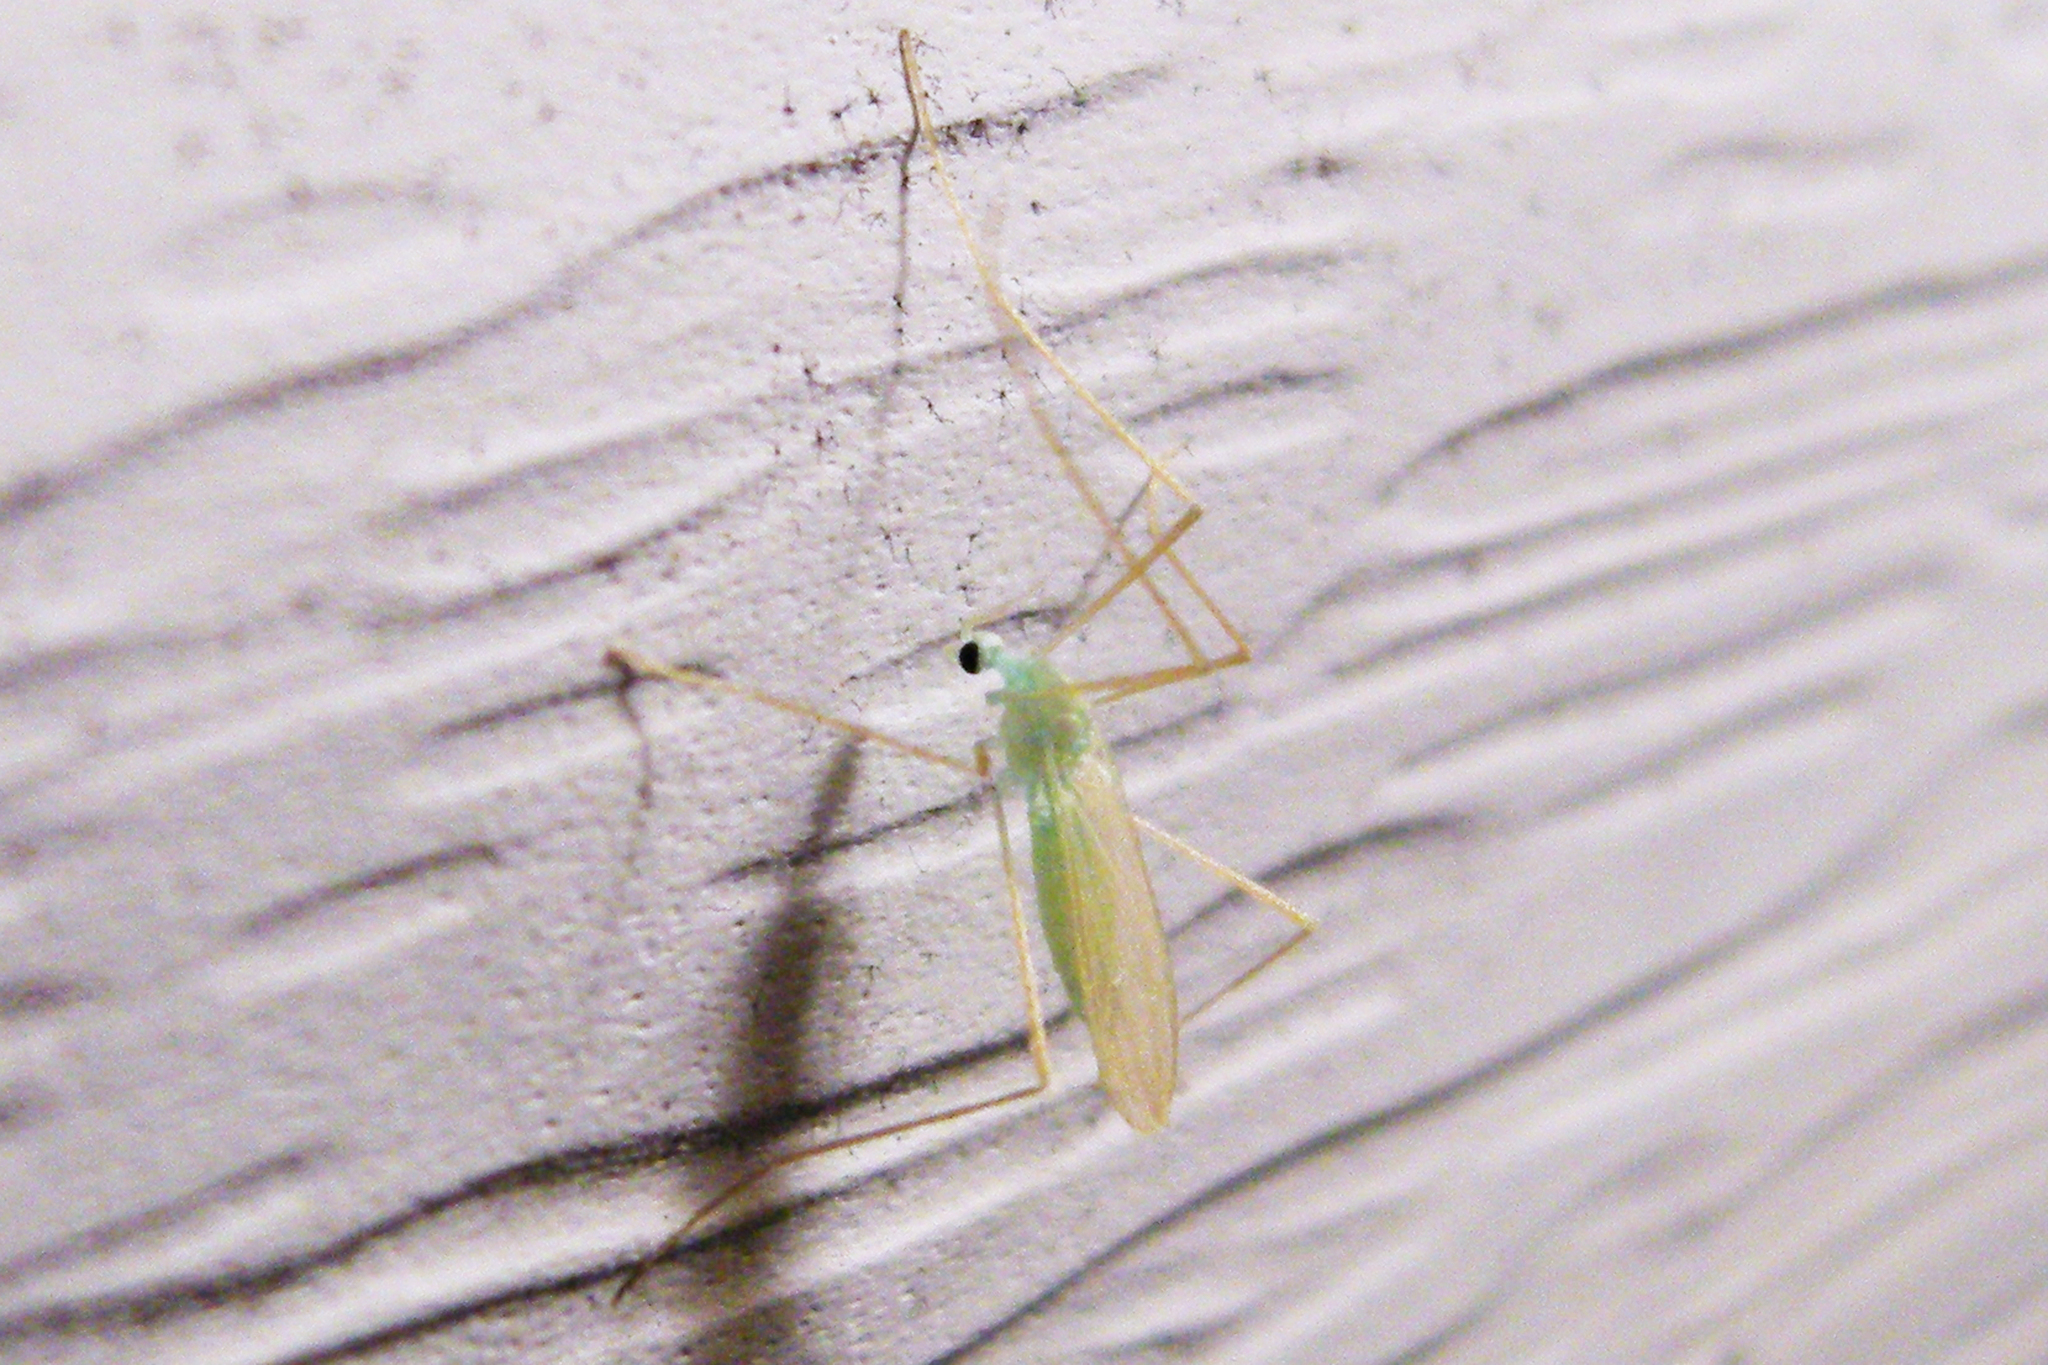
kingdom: Animalia
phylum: Arthropoda
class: Insecta
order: Diptera
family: Limoniidae
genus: Erioptera
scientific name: Erioptera
